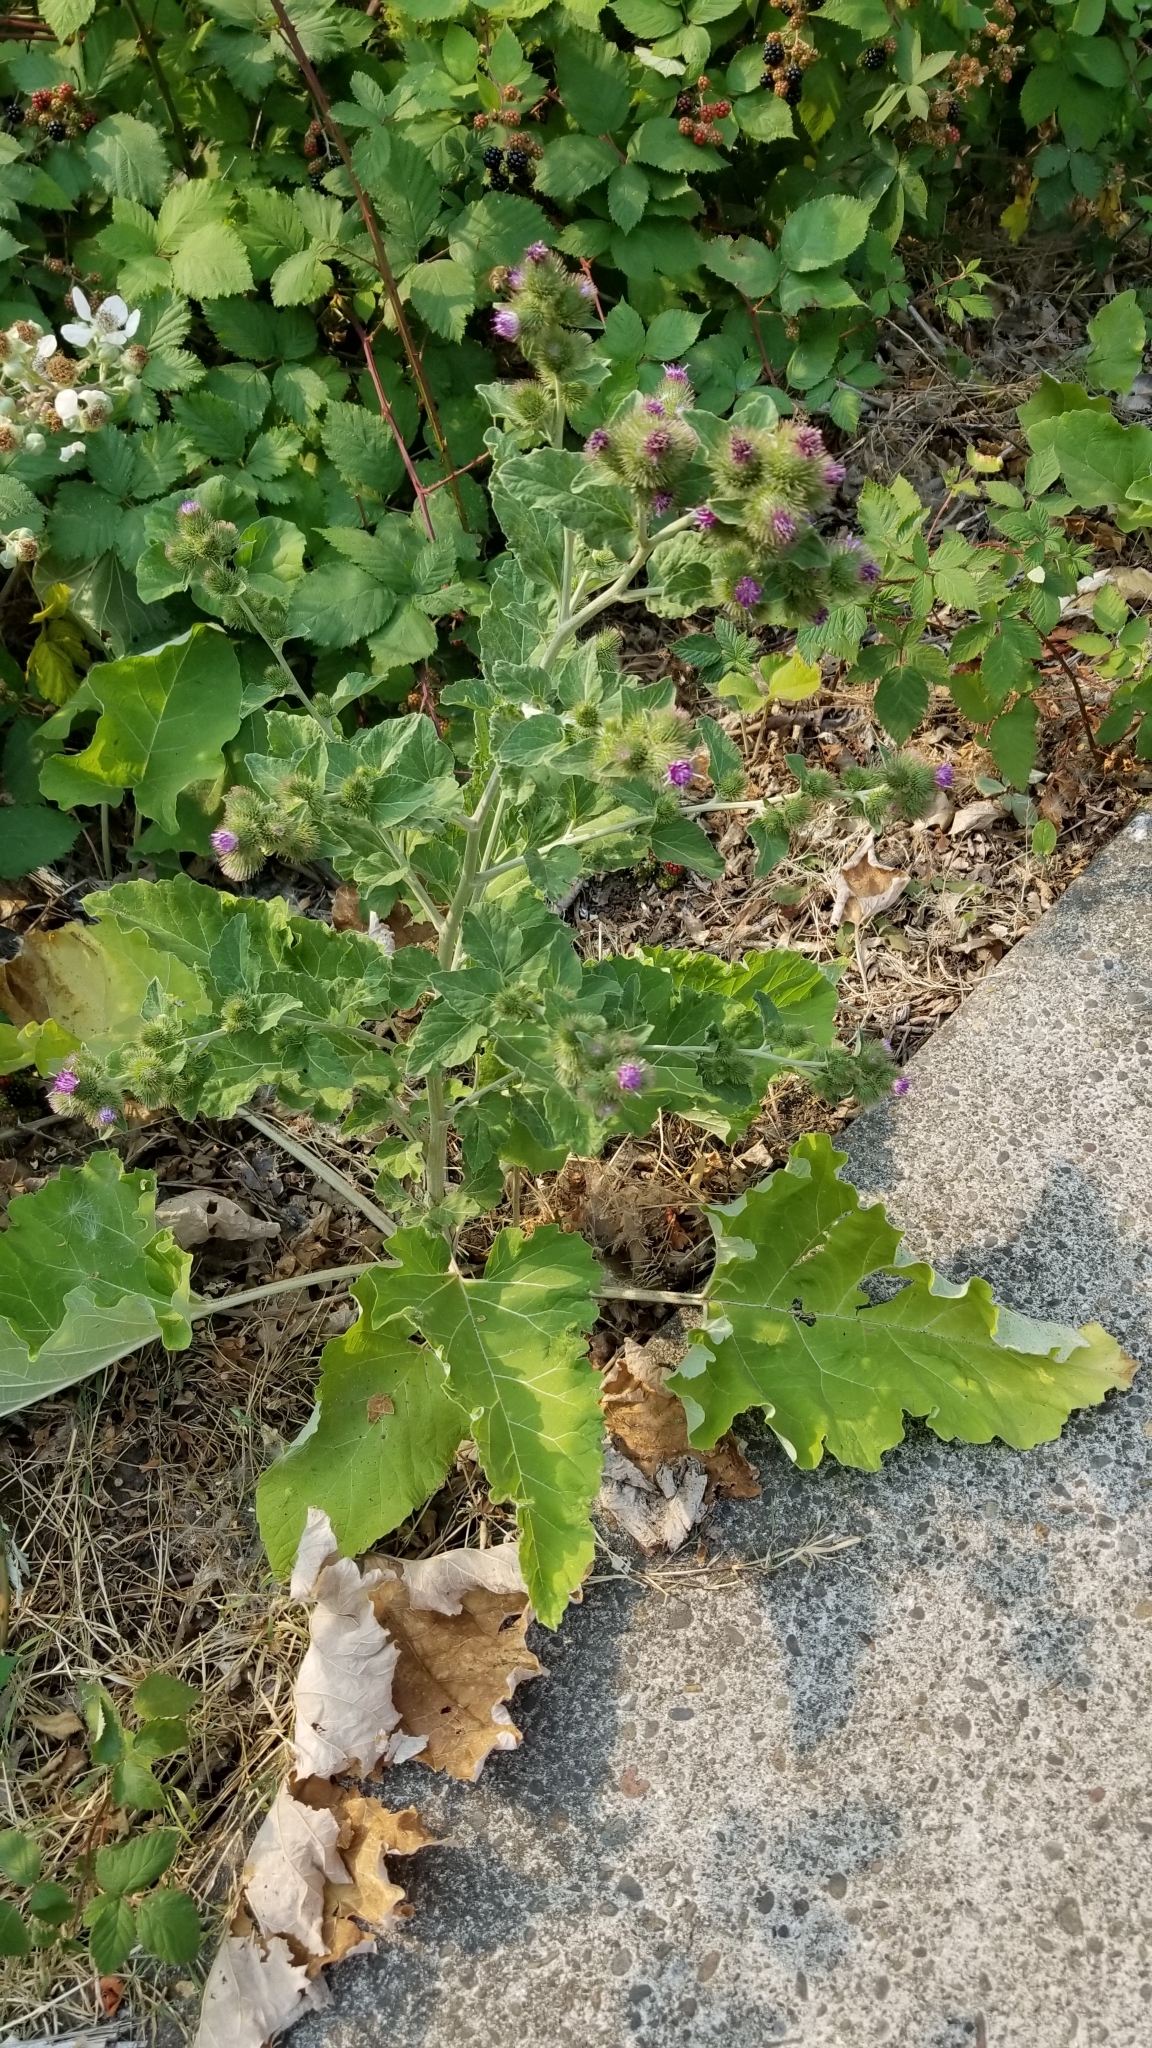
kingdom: Plantae
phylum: Tracheophyta
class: Magnoliopsida
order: Asterales
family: Asteraceae
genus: Arctium
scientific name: Arctium minus
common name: Lesser burdock
